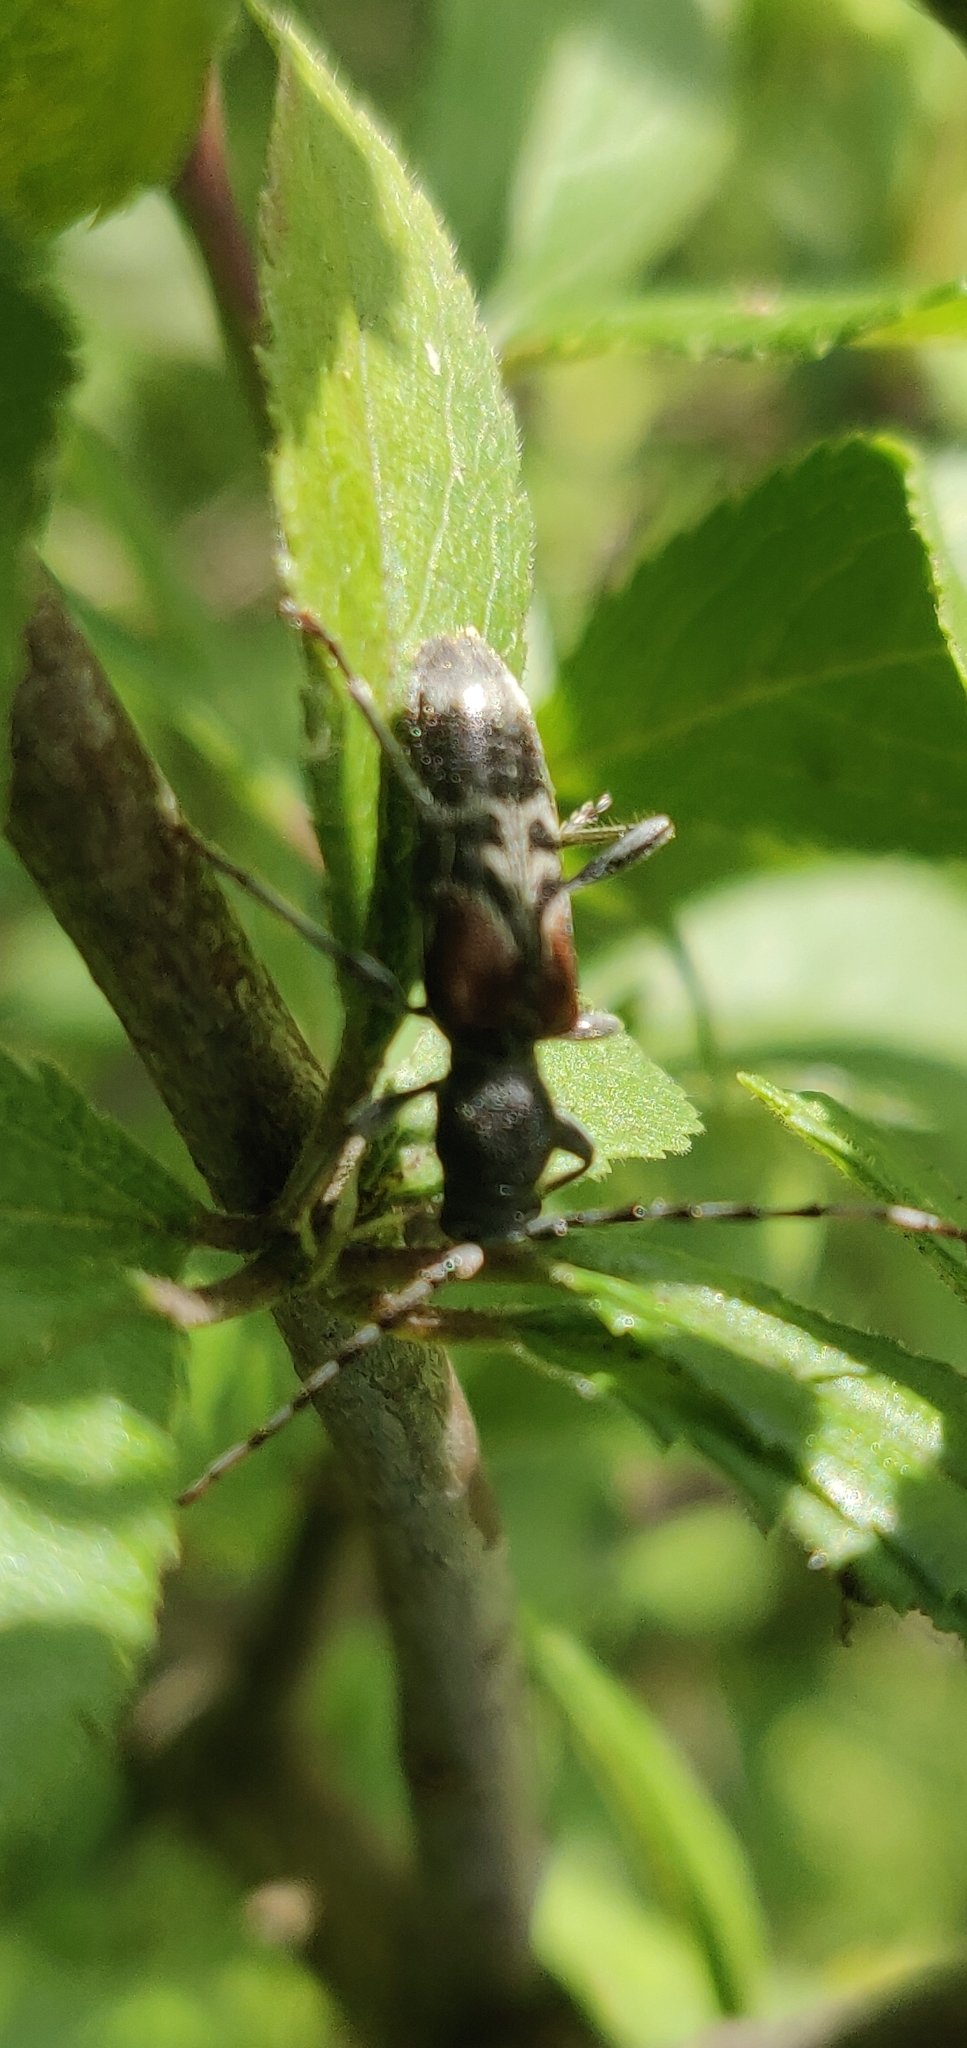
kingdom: Animalia
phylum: Arthropoda
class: Insecta
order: Coleoptera
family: Cerambycidae
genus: Anaglyptus
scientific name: Anaglyptus mysticus
